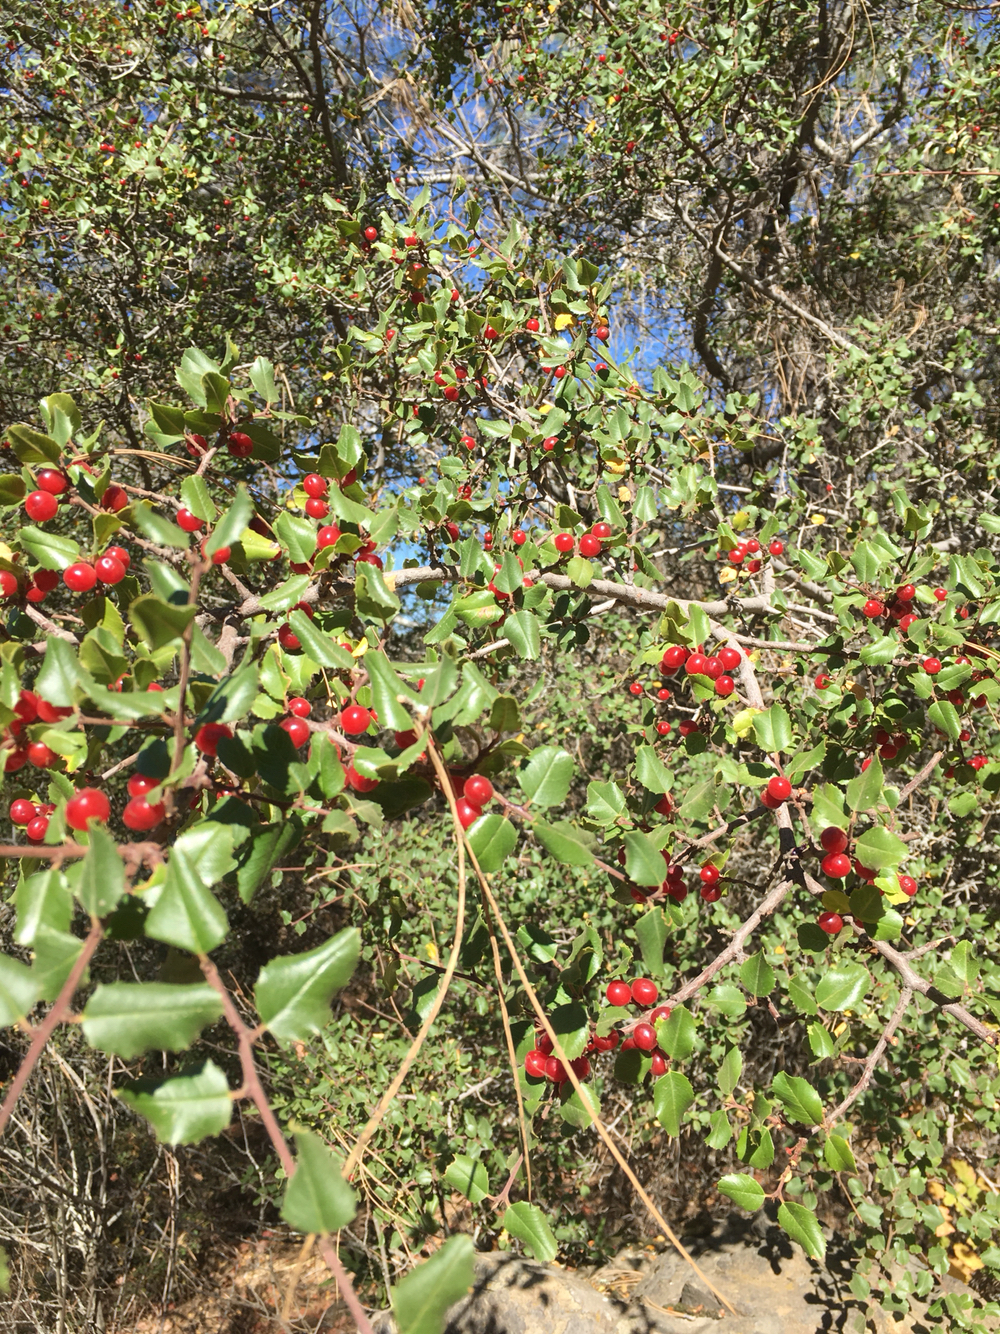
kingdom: Plantae
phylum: Tracheophyta
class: Magnoliopsida
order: Rosales
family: Rhamnaceae
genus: Endotropis
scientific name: Endotropis crocea
